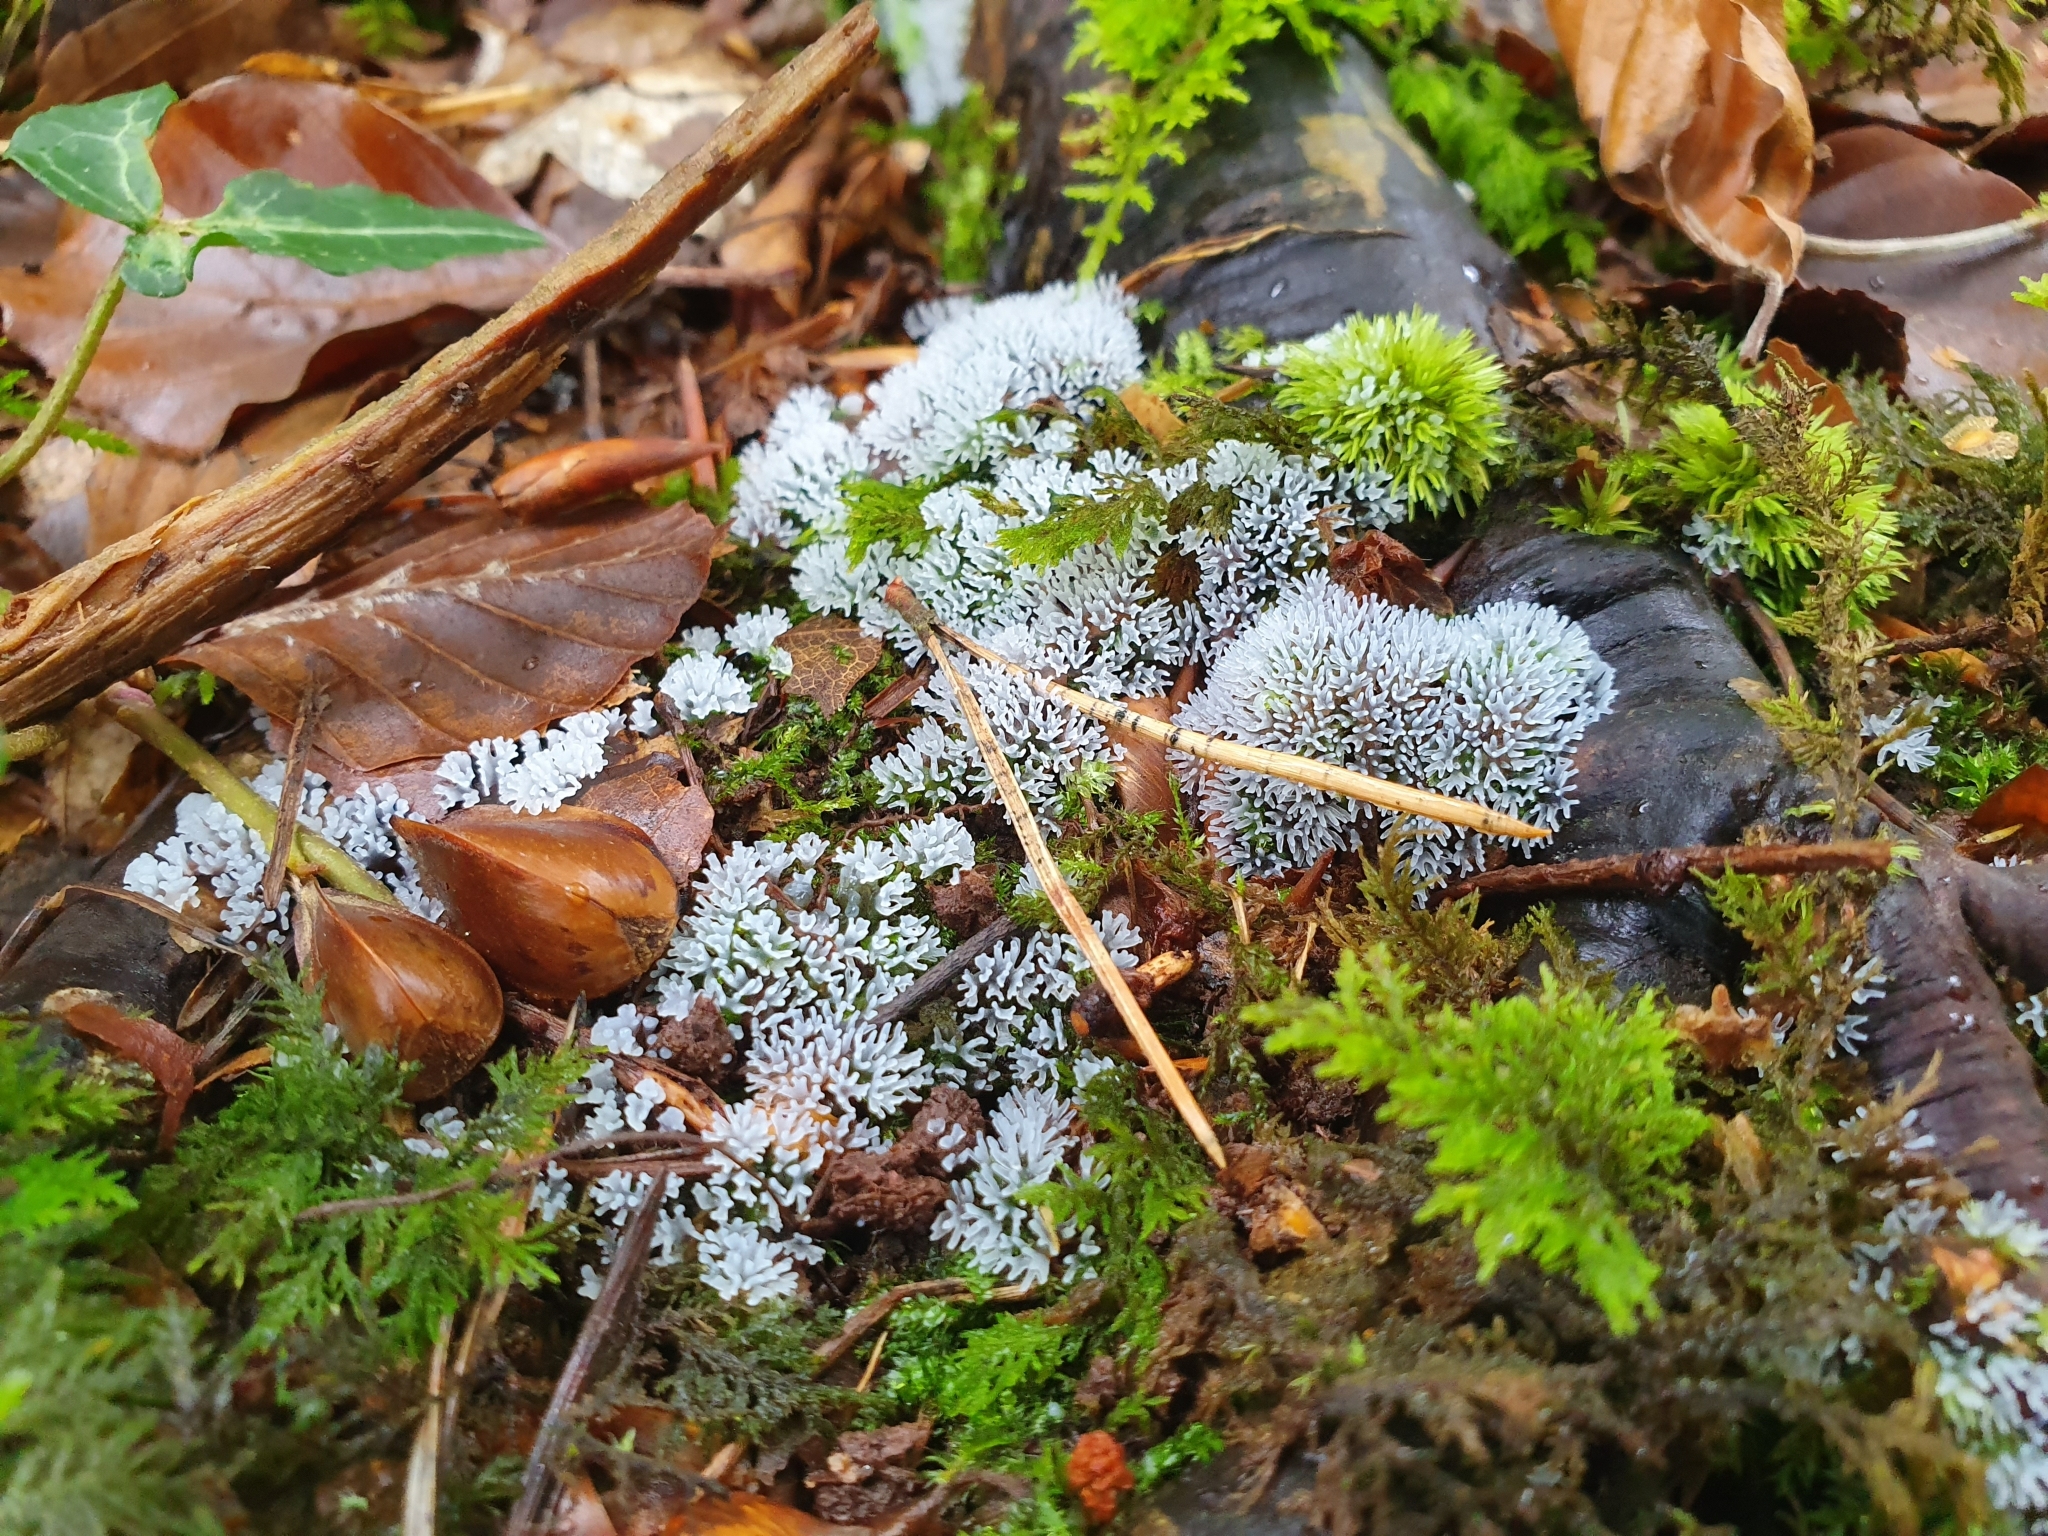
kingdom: Protozoa
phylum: Mycetozoa
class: Protosteliomycetes
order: Ceratiomyxales
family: Ceratiomyxaceae
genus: Ceratiomyxa
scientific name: Ceratiomyxa fruticulosa
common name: Honeycomb coral slime mold
